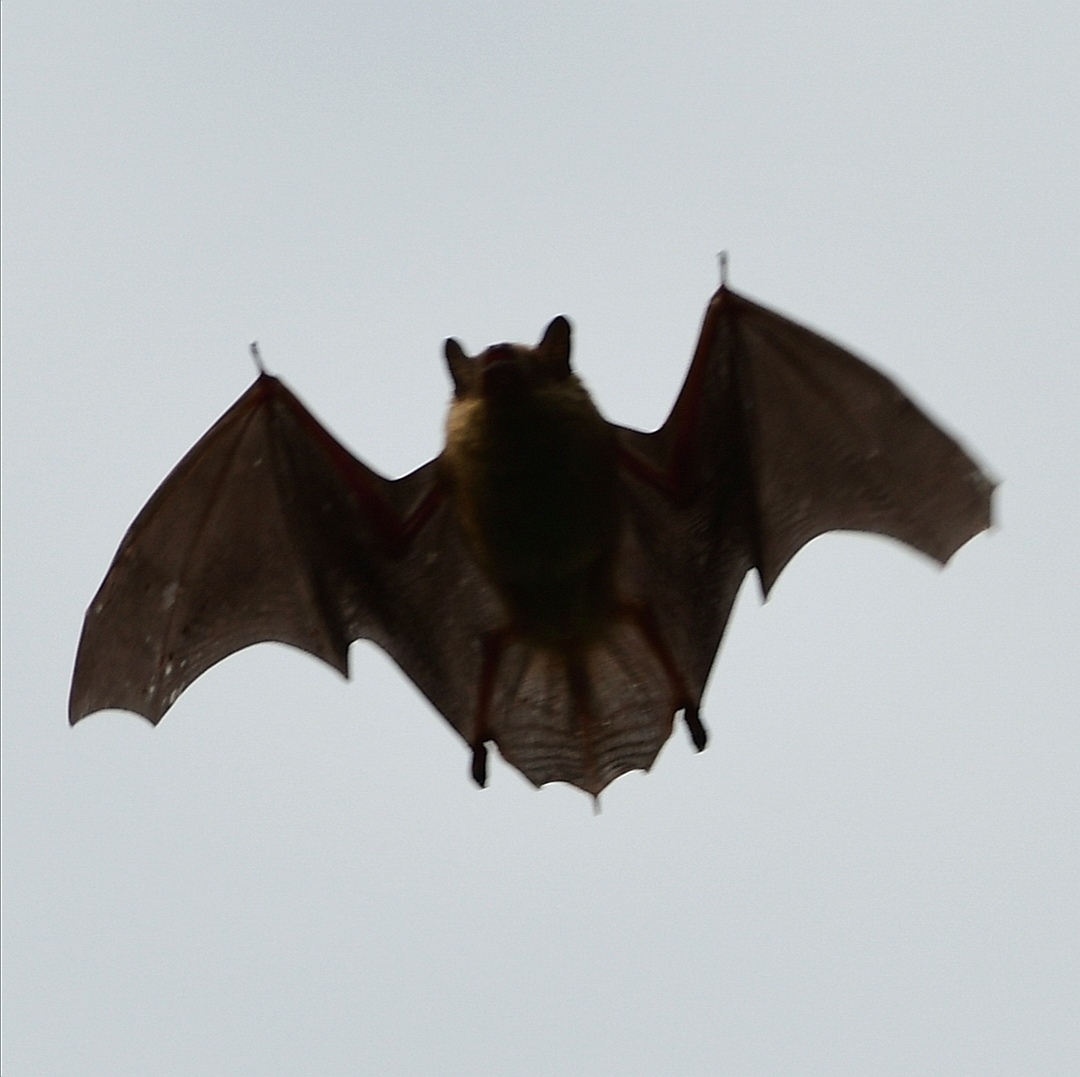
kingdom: Animalia
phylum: Chordata
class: Mammalia
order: Chiroptera
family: Vespertilionidae
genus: Eptesicus
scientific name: Eptesicus fuscus
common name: Big brown bat
